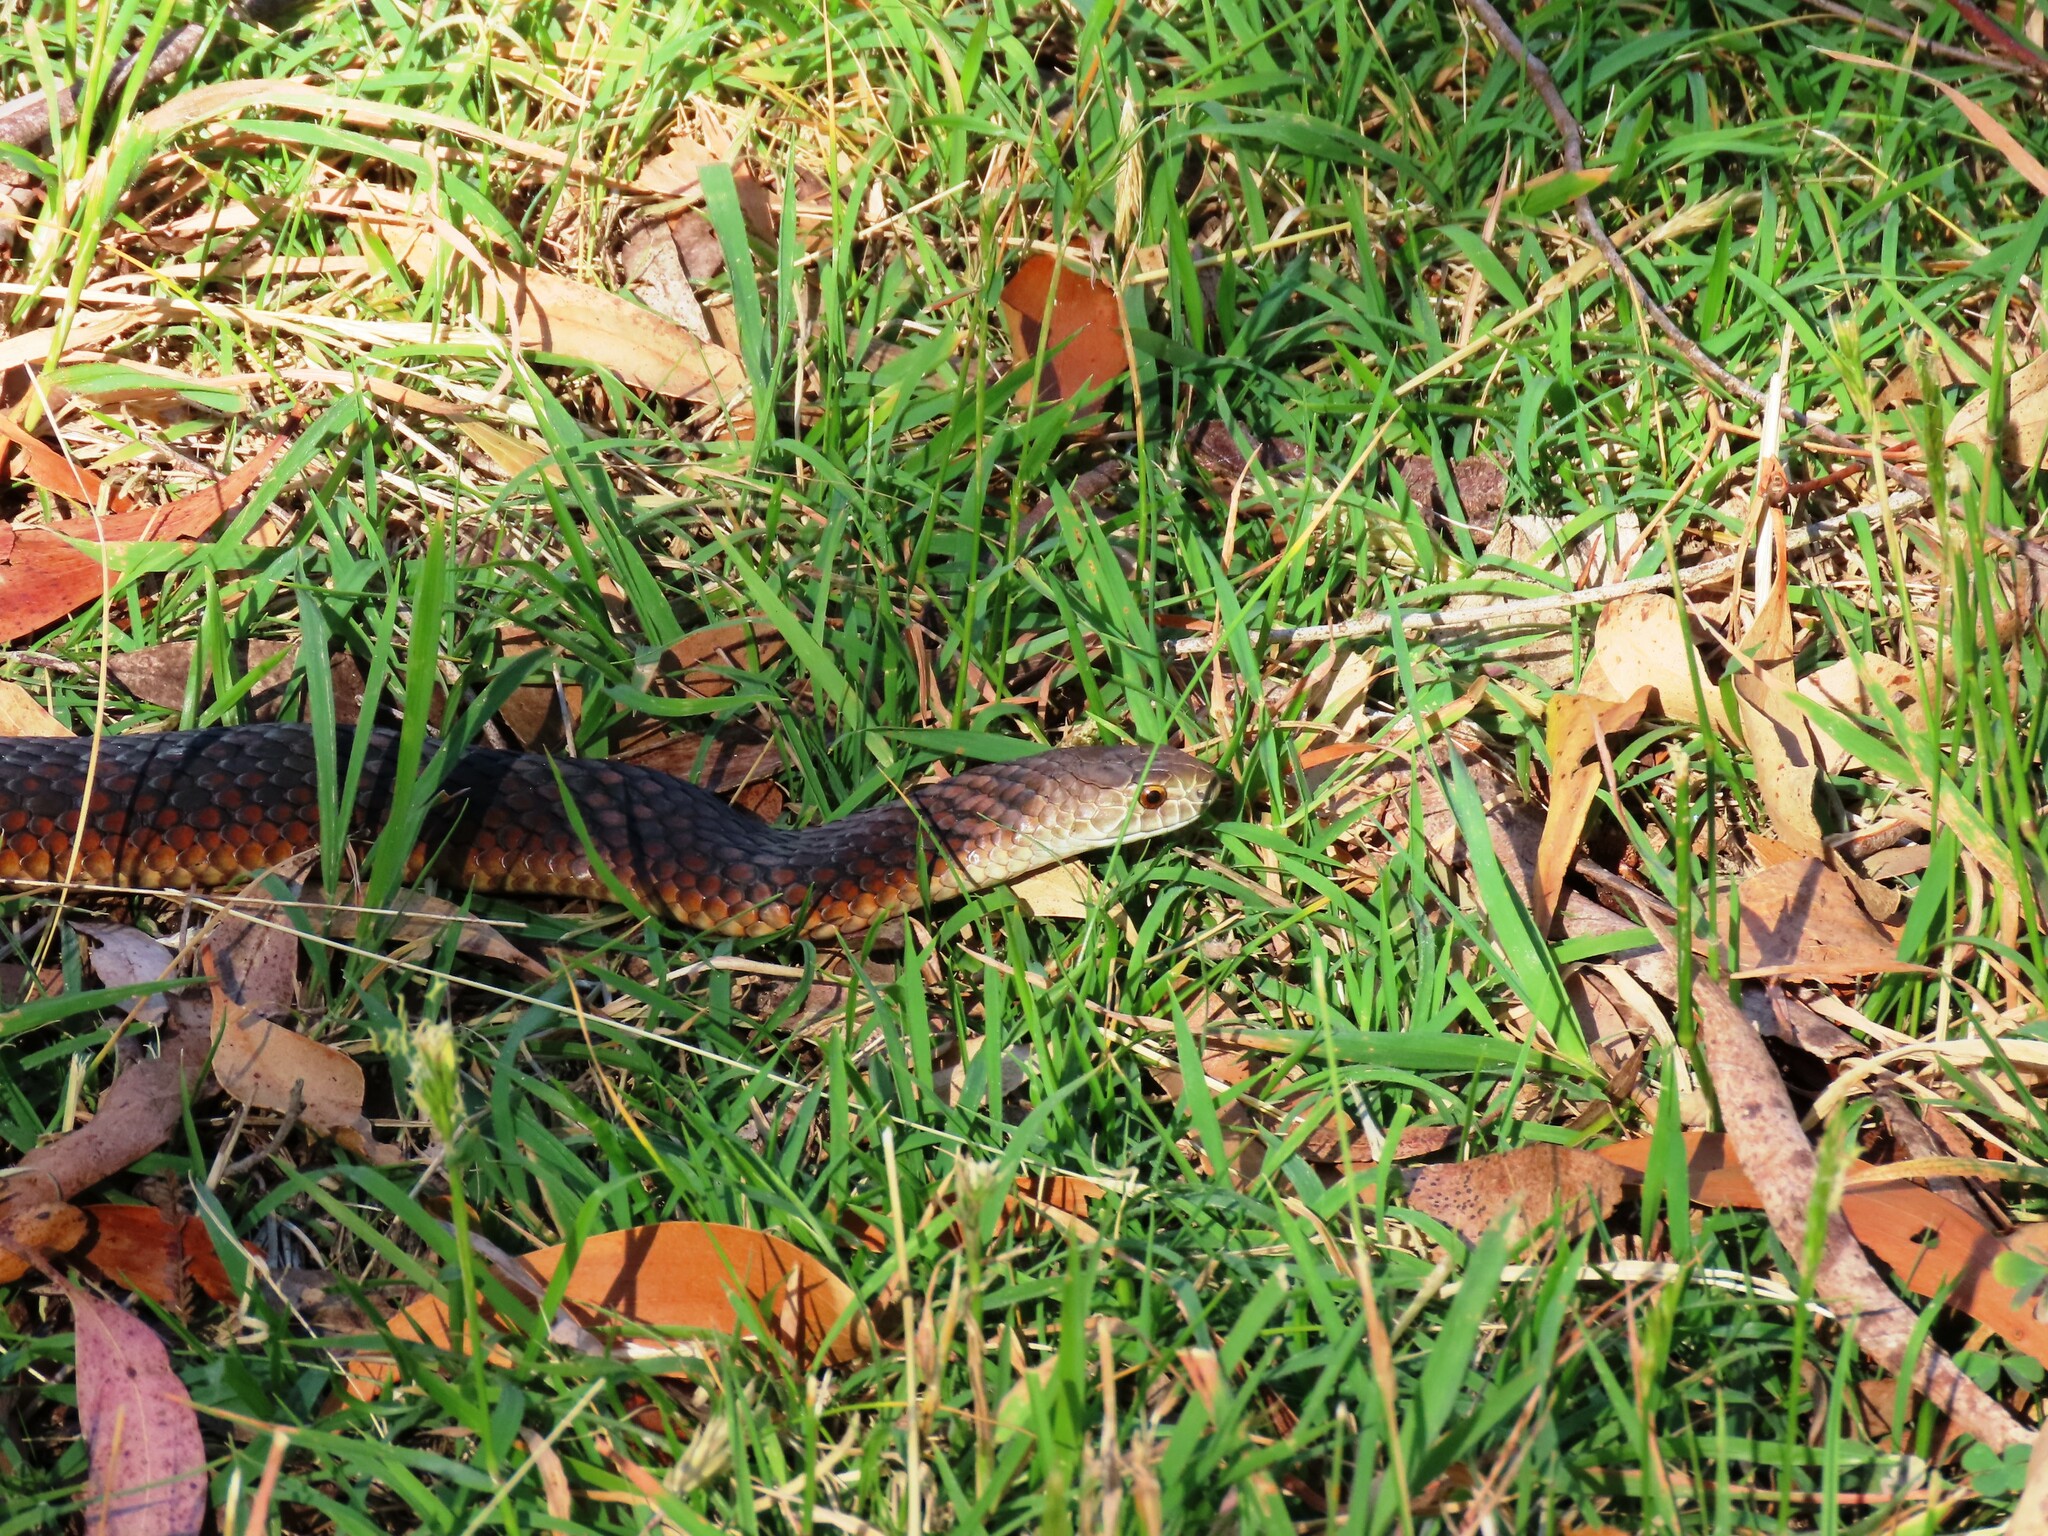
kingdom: Animalia
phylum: Chordata
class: Squamata
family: Elapidae
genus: Austrelaps
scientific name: Austrelaps superbus
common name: Copperhead snake
